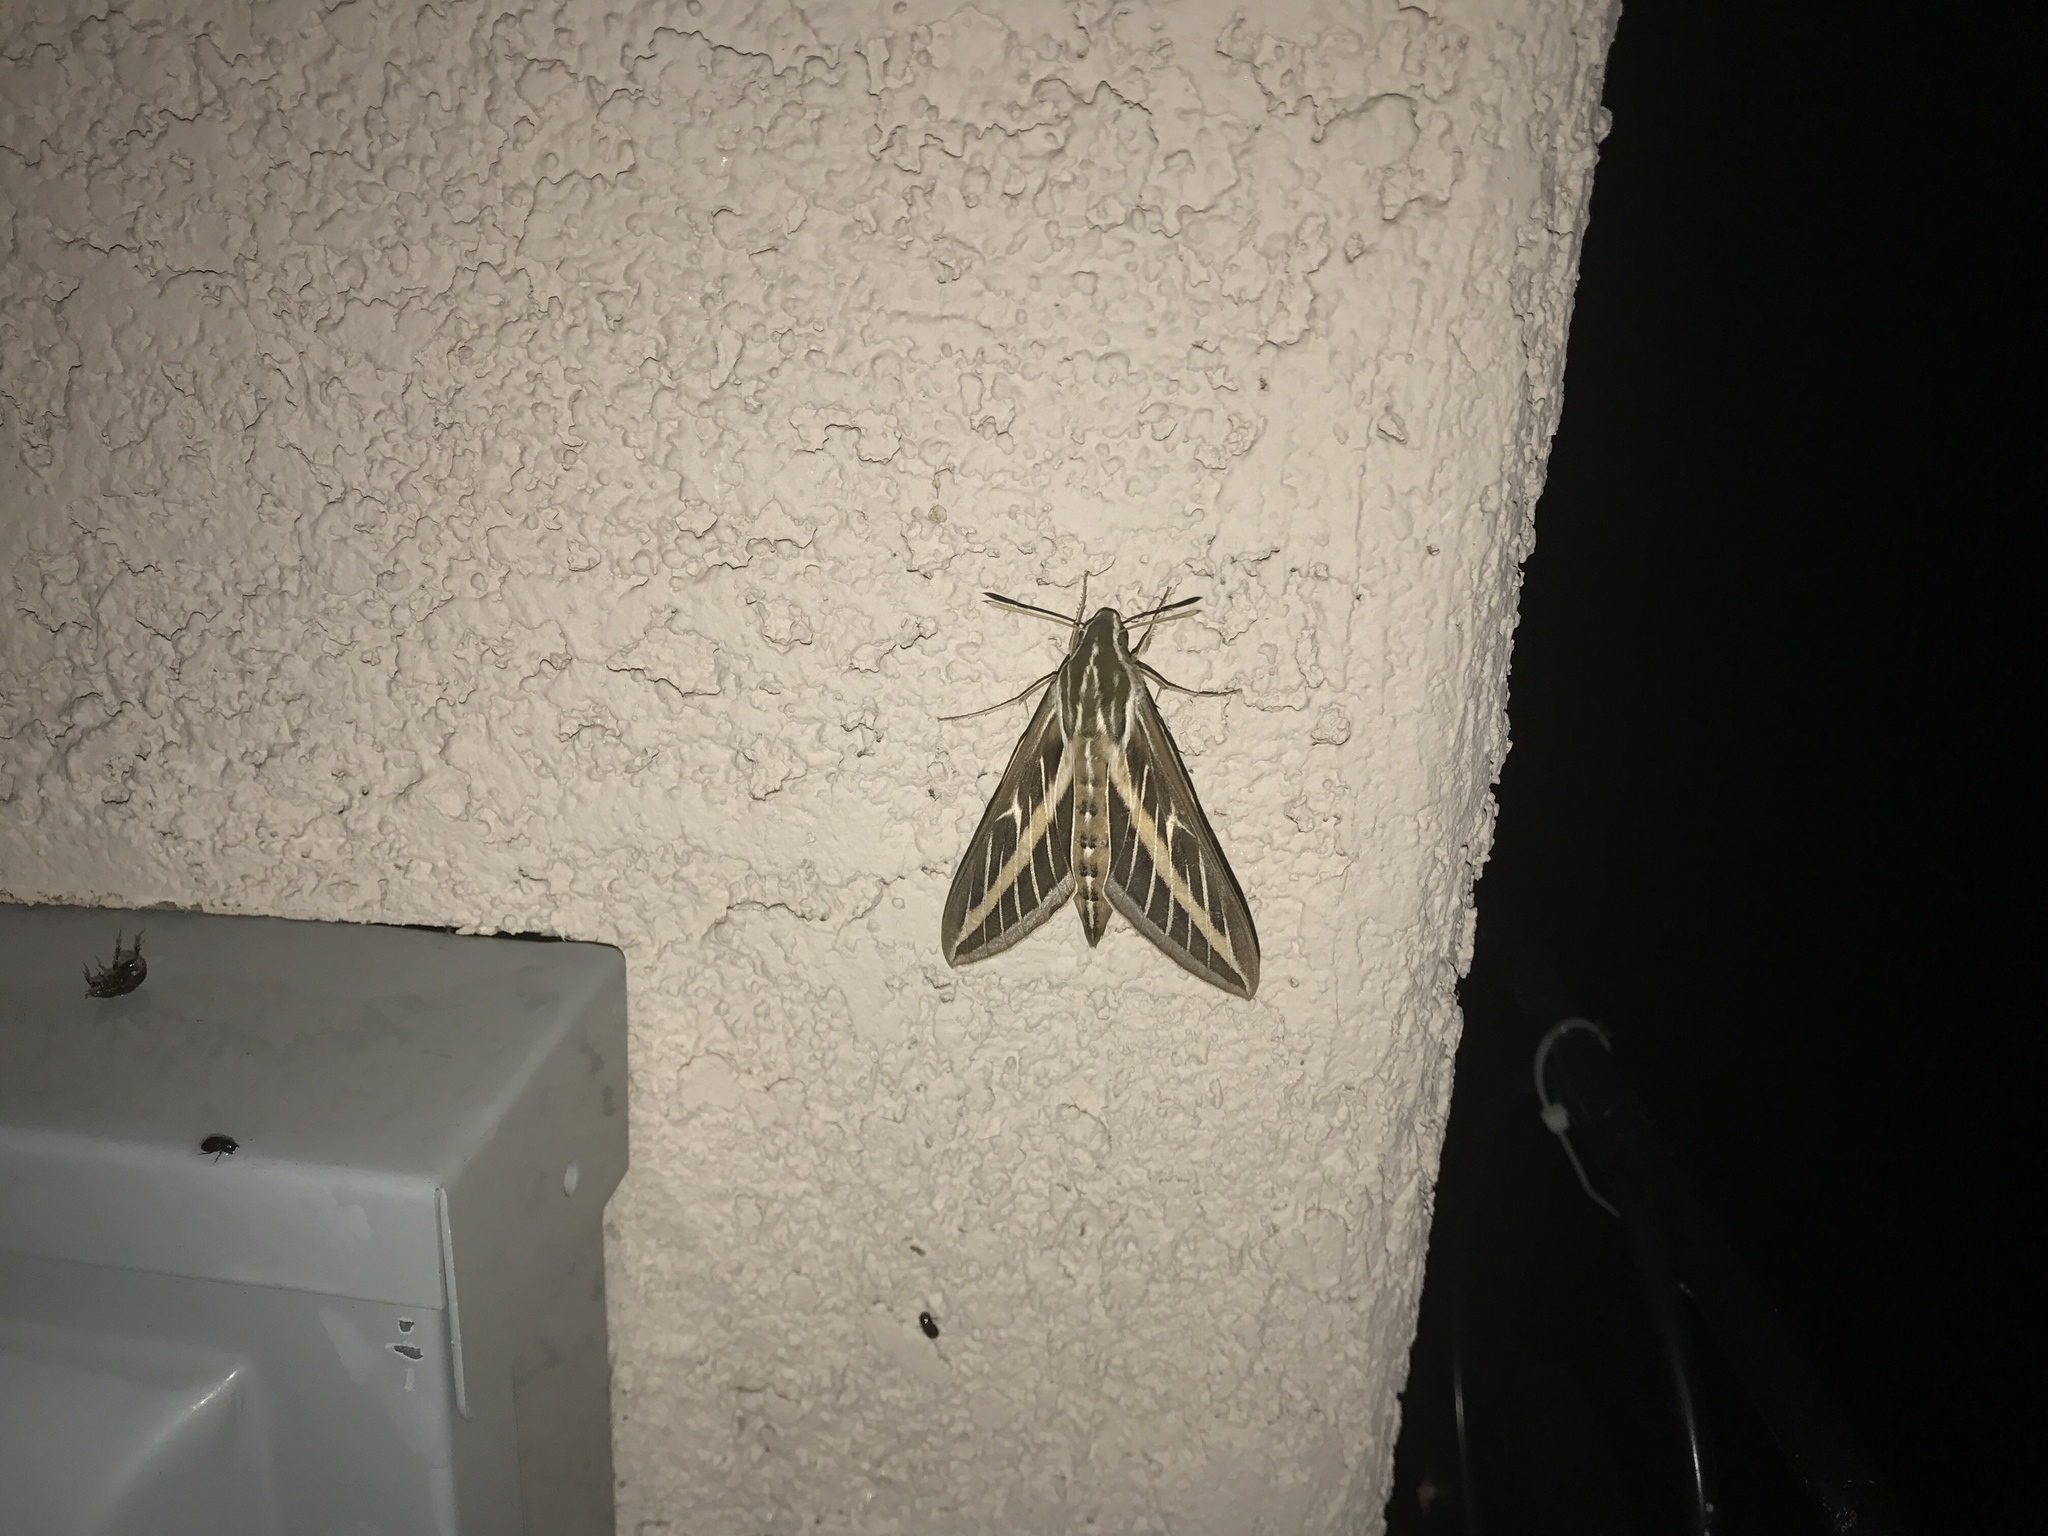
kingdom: Animalia
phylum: Arthropoda
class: Insecta
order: Lepidoptera
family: Sphingidae
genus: Hyles
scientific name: Hyles lineata
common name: White-lined sphinx
